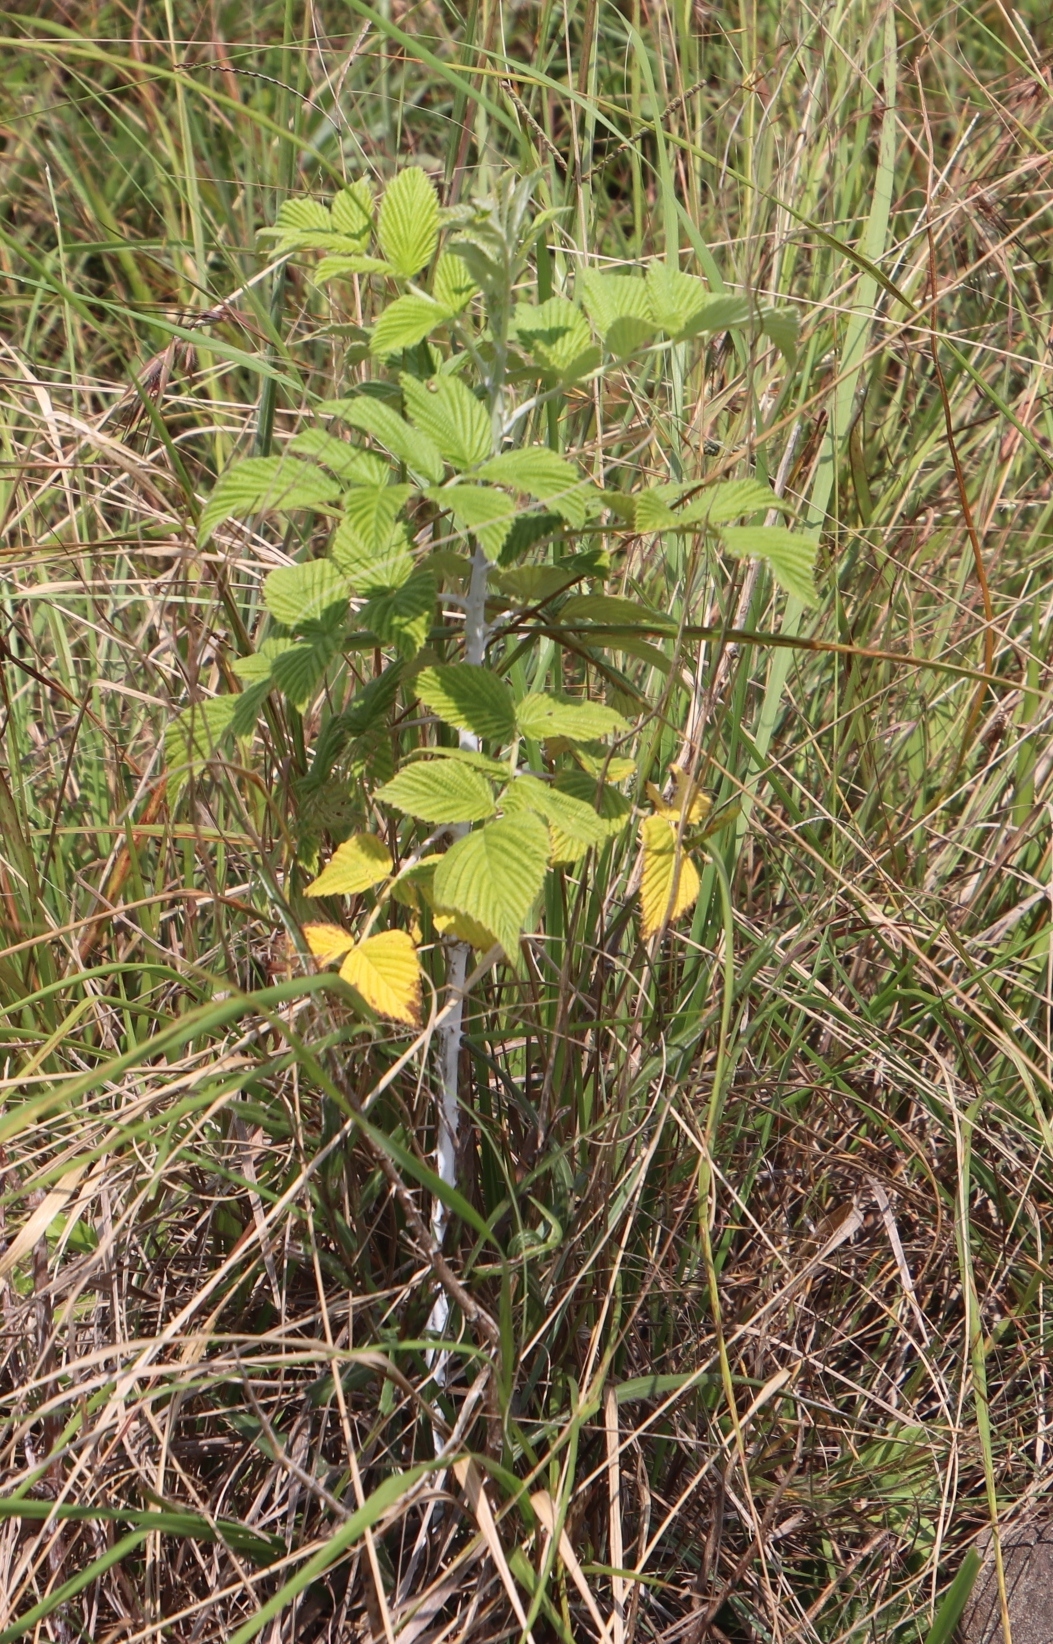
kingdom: Plantae
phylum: Tracheophyta
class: Magnoliopsida
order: Rosales
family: Rosaceae
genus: Rubus
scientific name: Rubus niveus
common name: Snowpeaks raspberry
